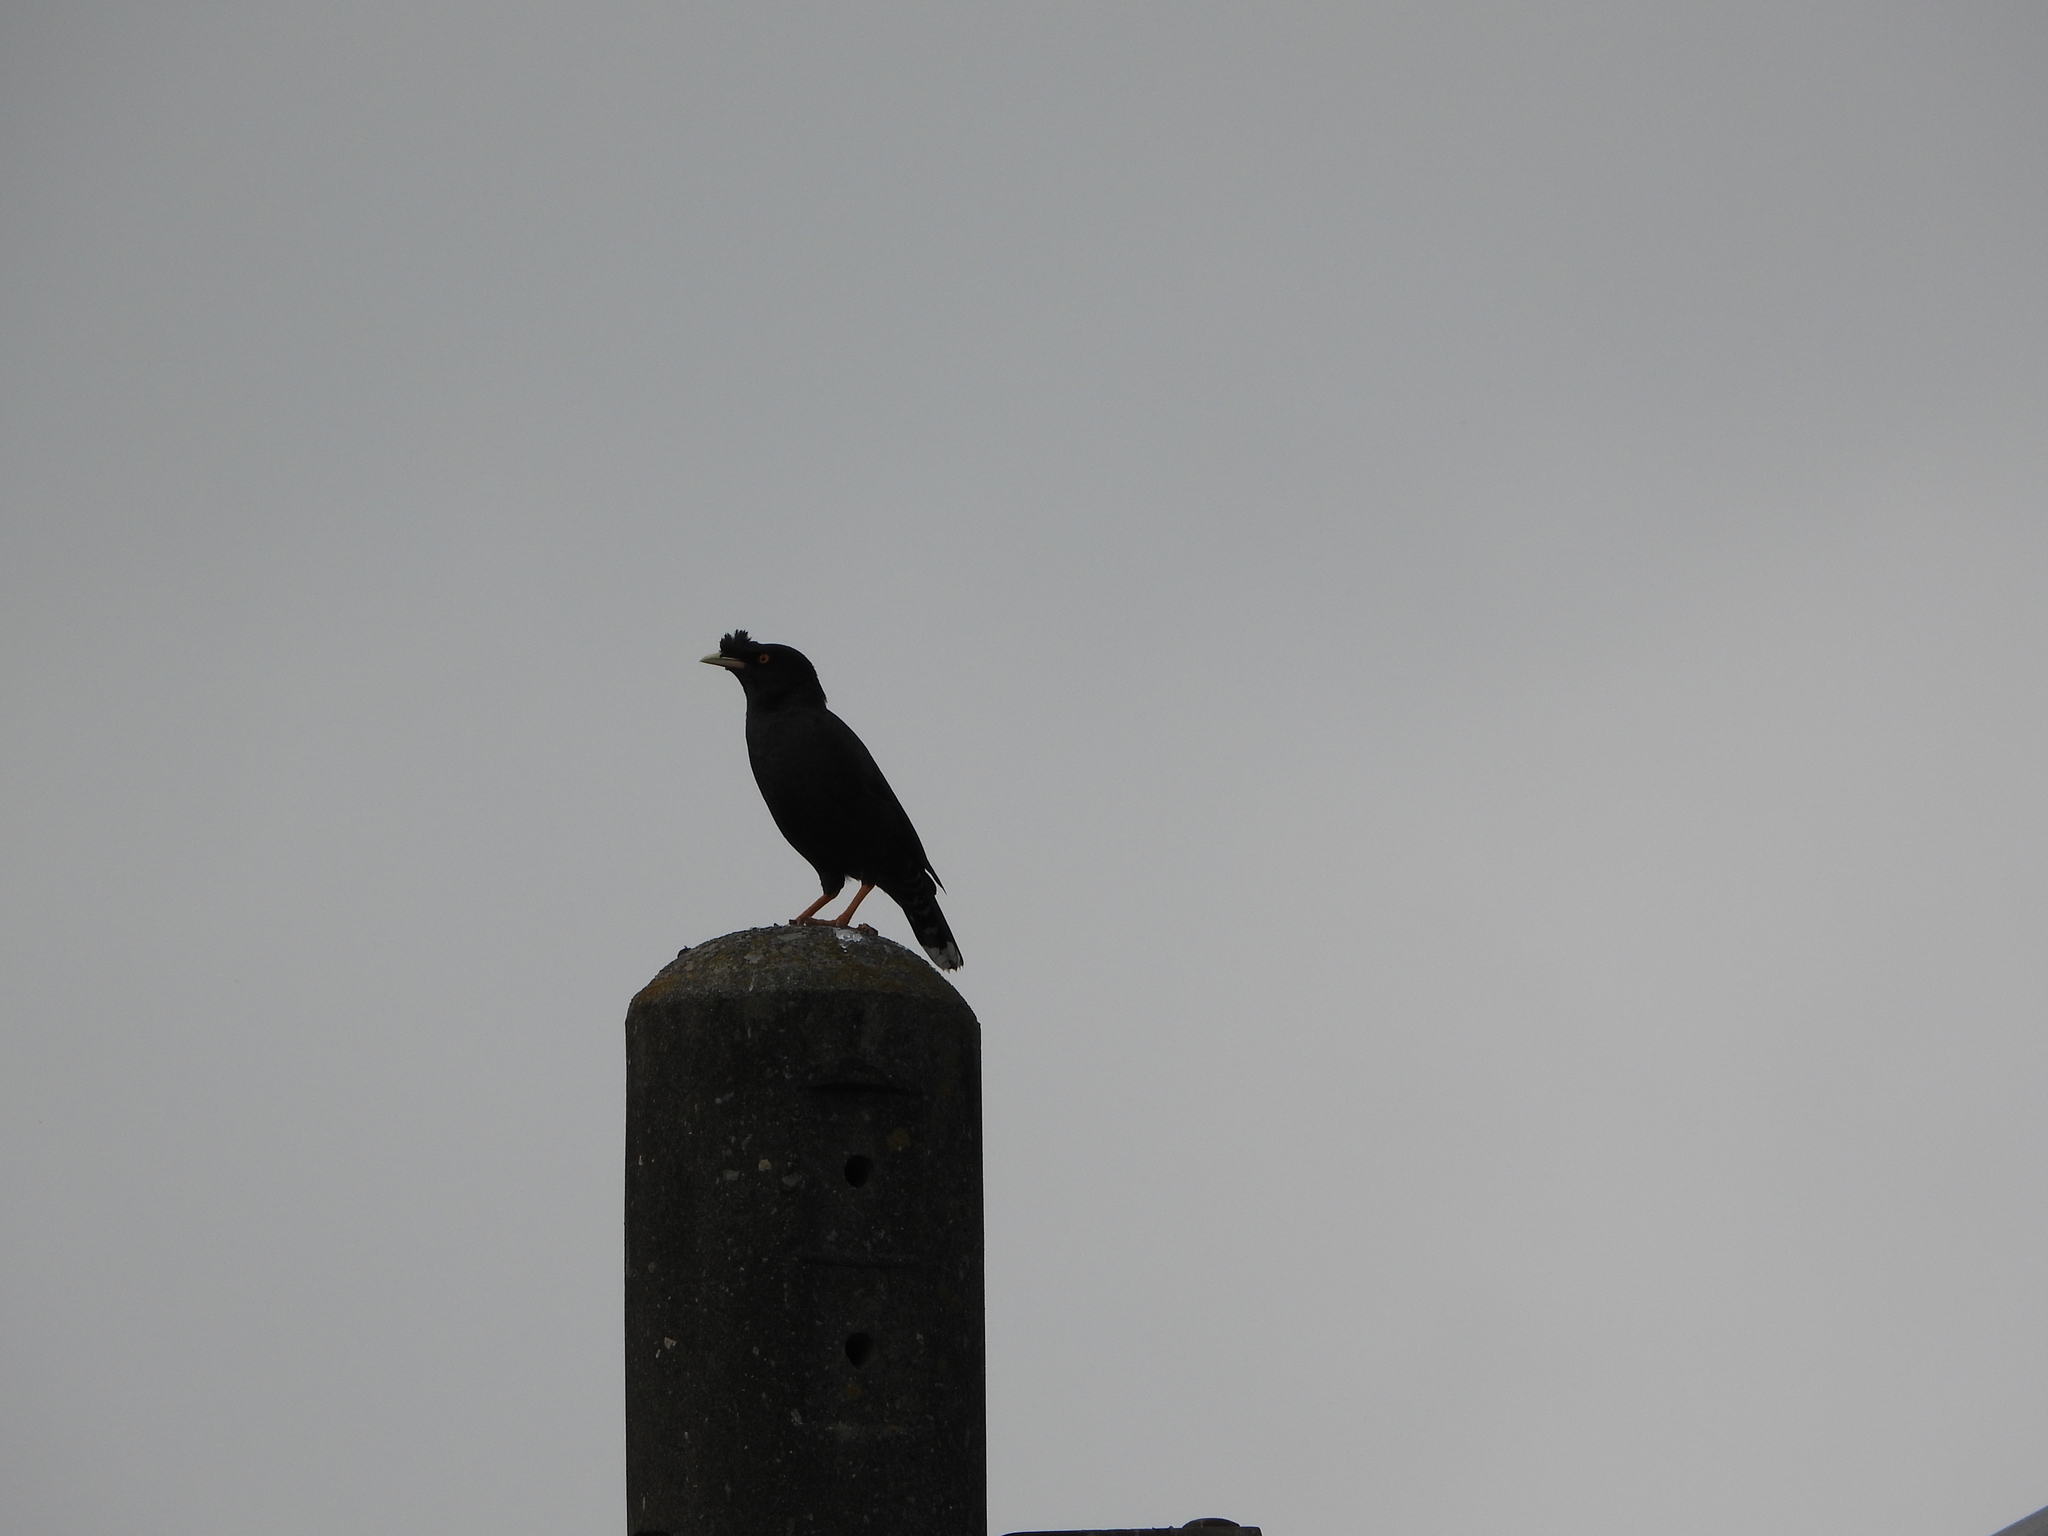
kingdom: Animalia
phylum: Chordata
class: Aves
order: Passeriformes
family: Sturnidae
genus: Acridotheres
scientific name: Acridotheres cristatellus
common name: Crested myna
